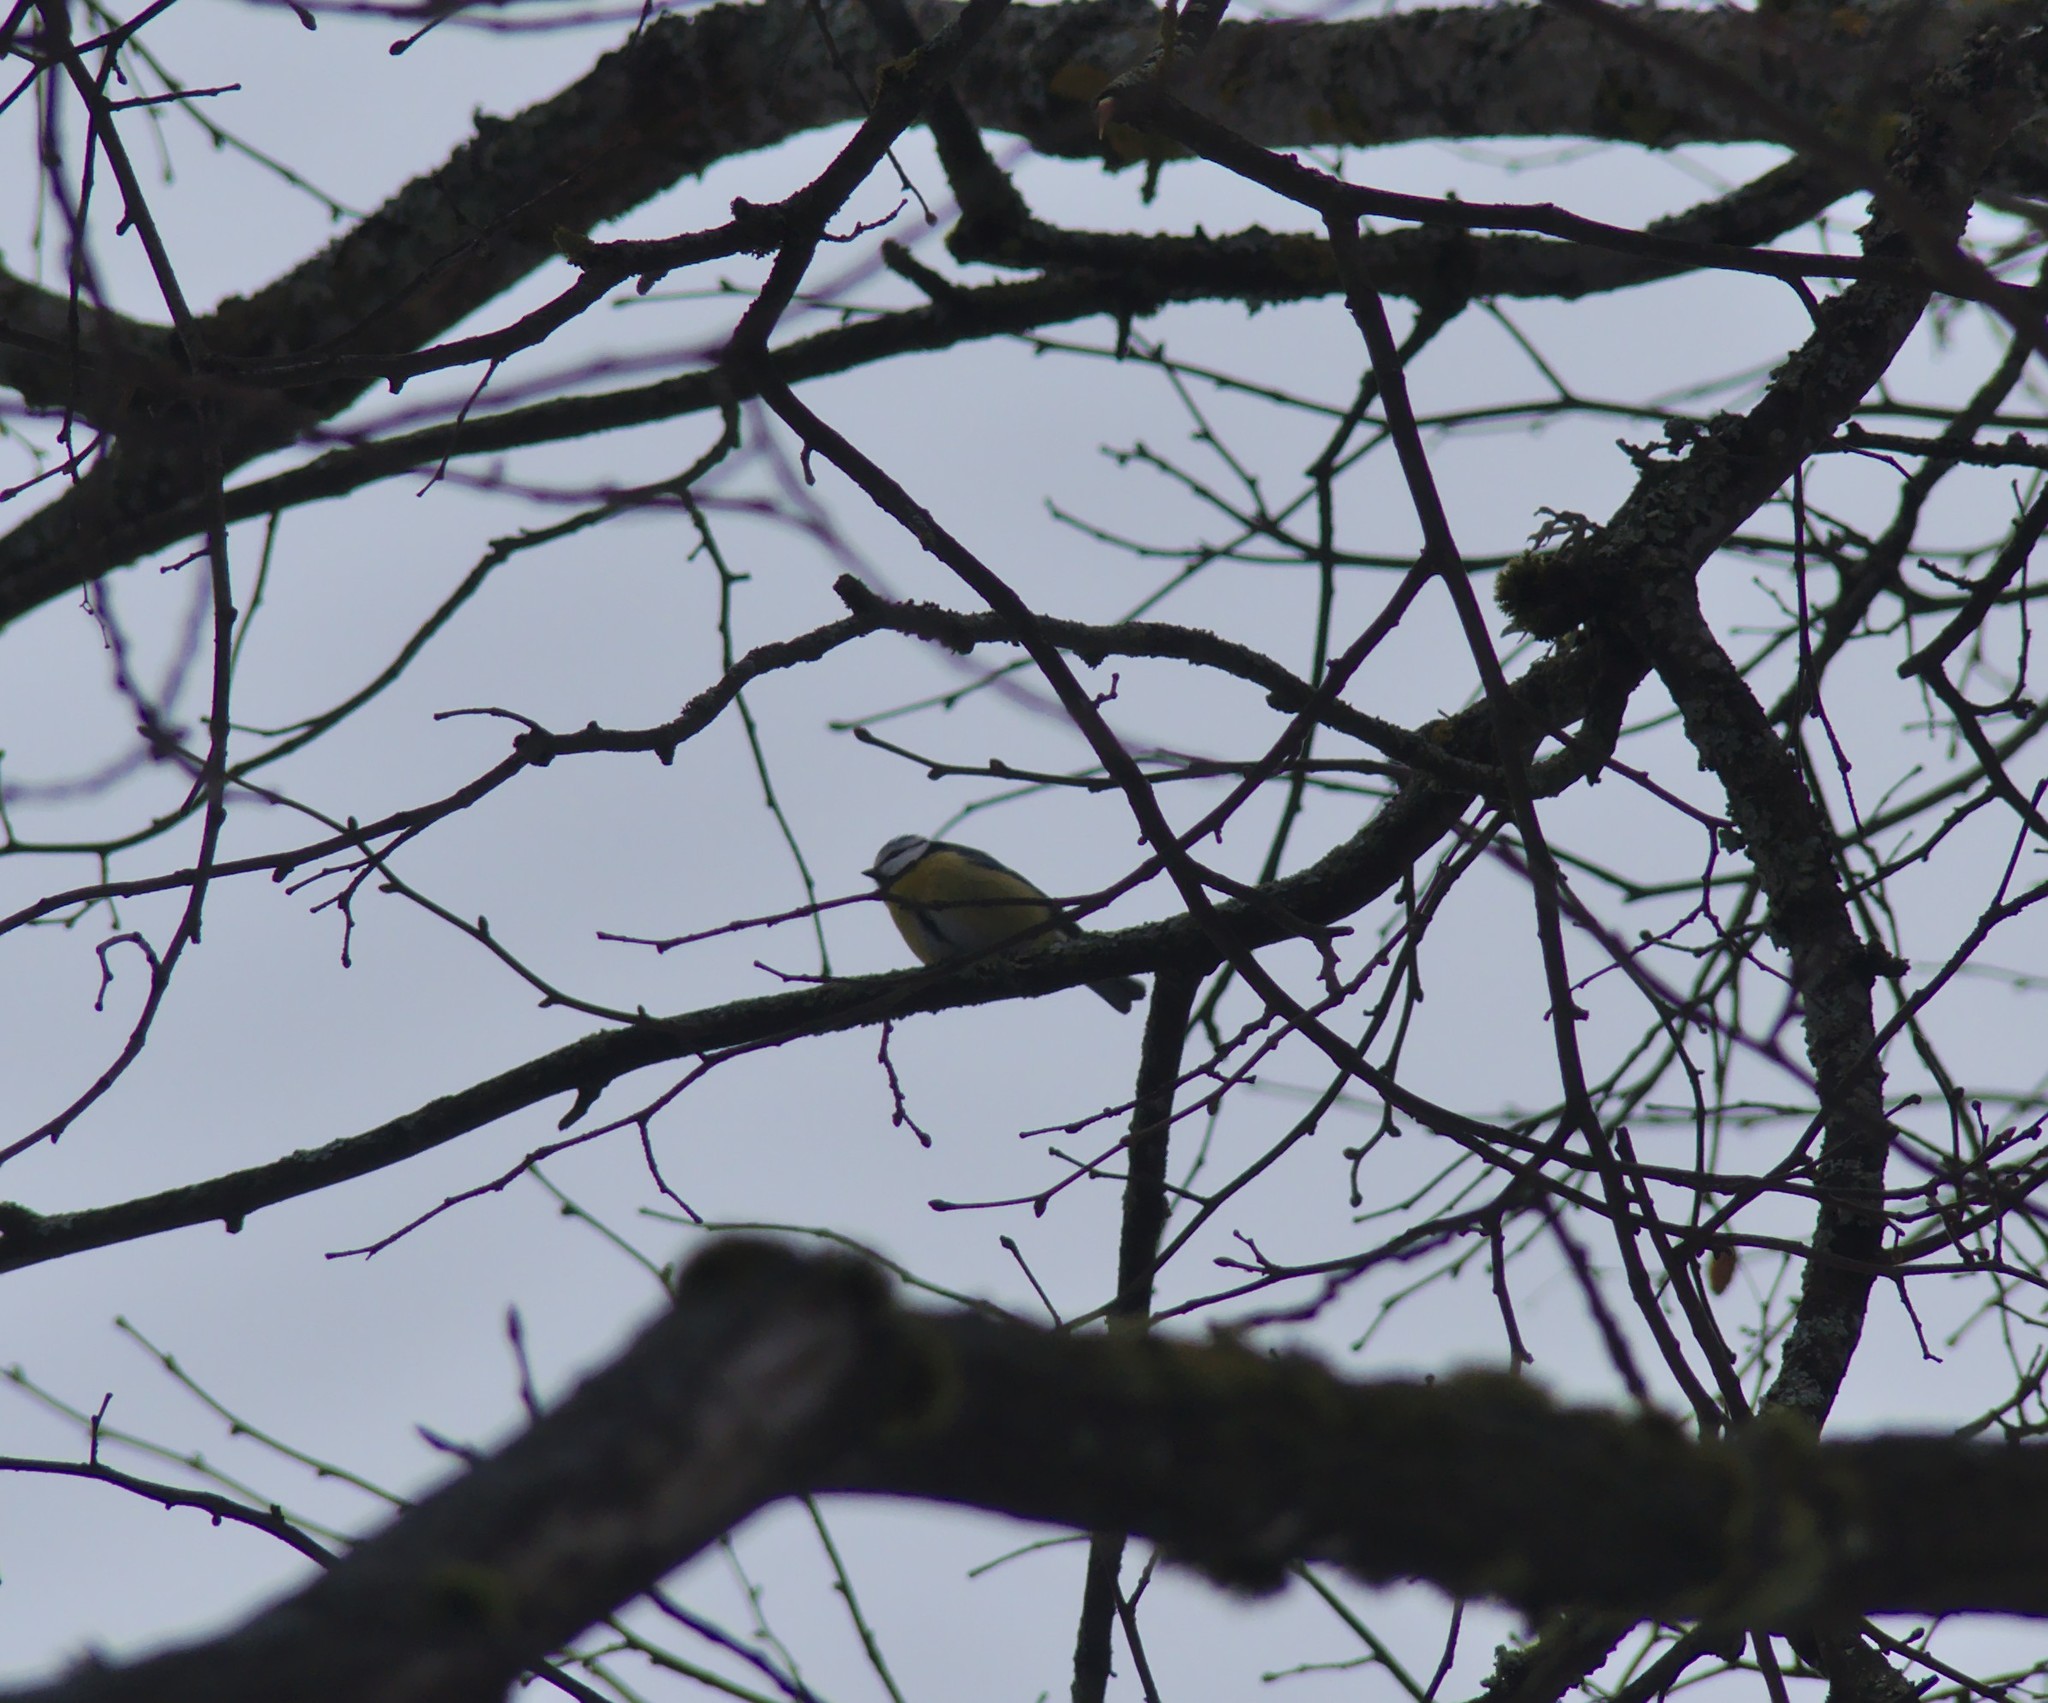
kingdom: Animalia
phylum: Chordata
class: Aves
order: Passeriformes
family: Paridae
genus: Cyanistes
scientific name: Cyanistes caeruleus
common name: Eurasian blue tit
